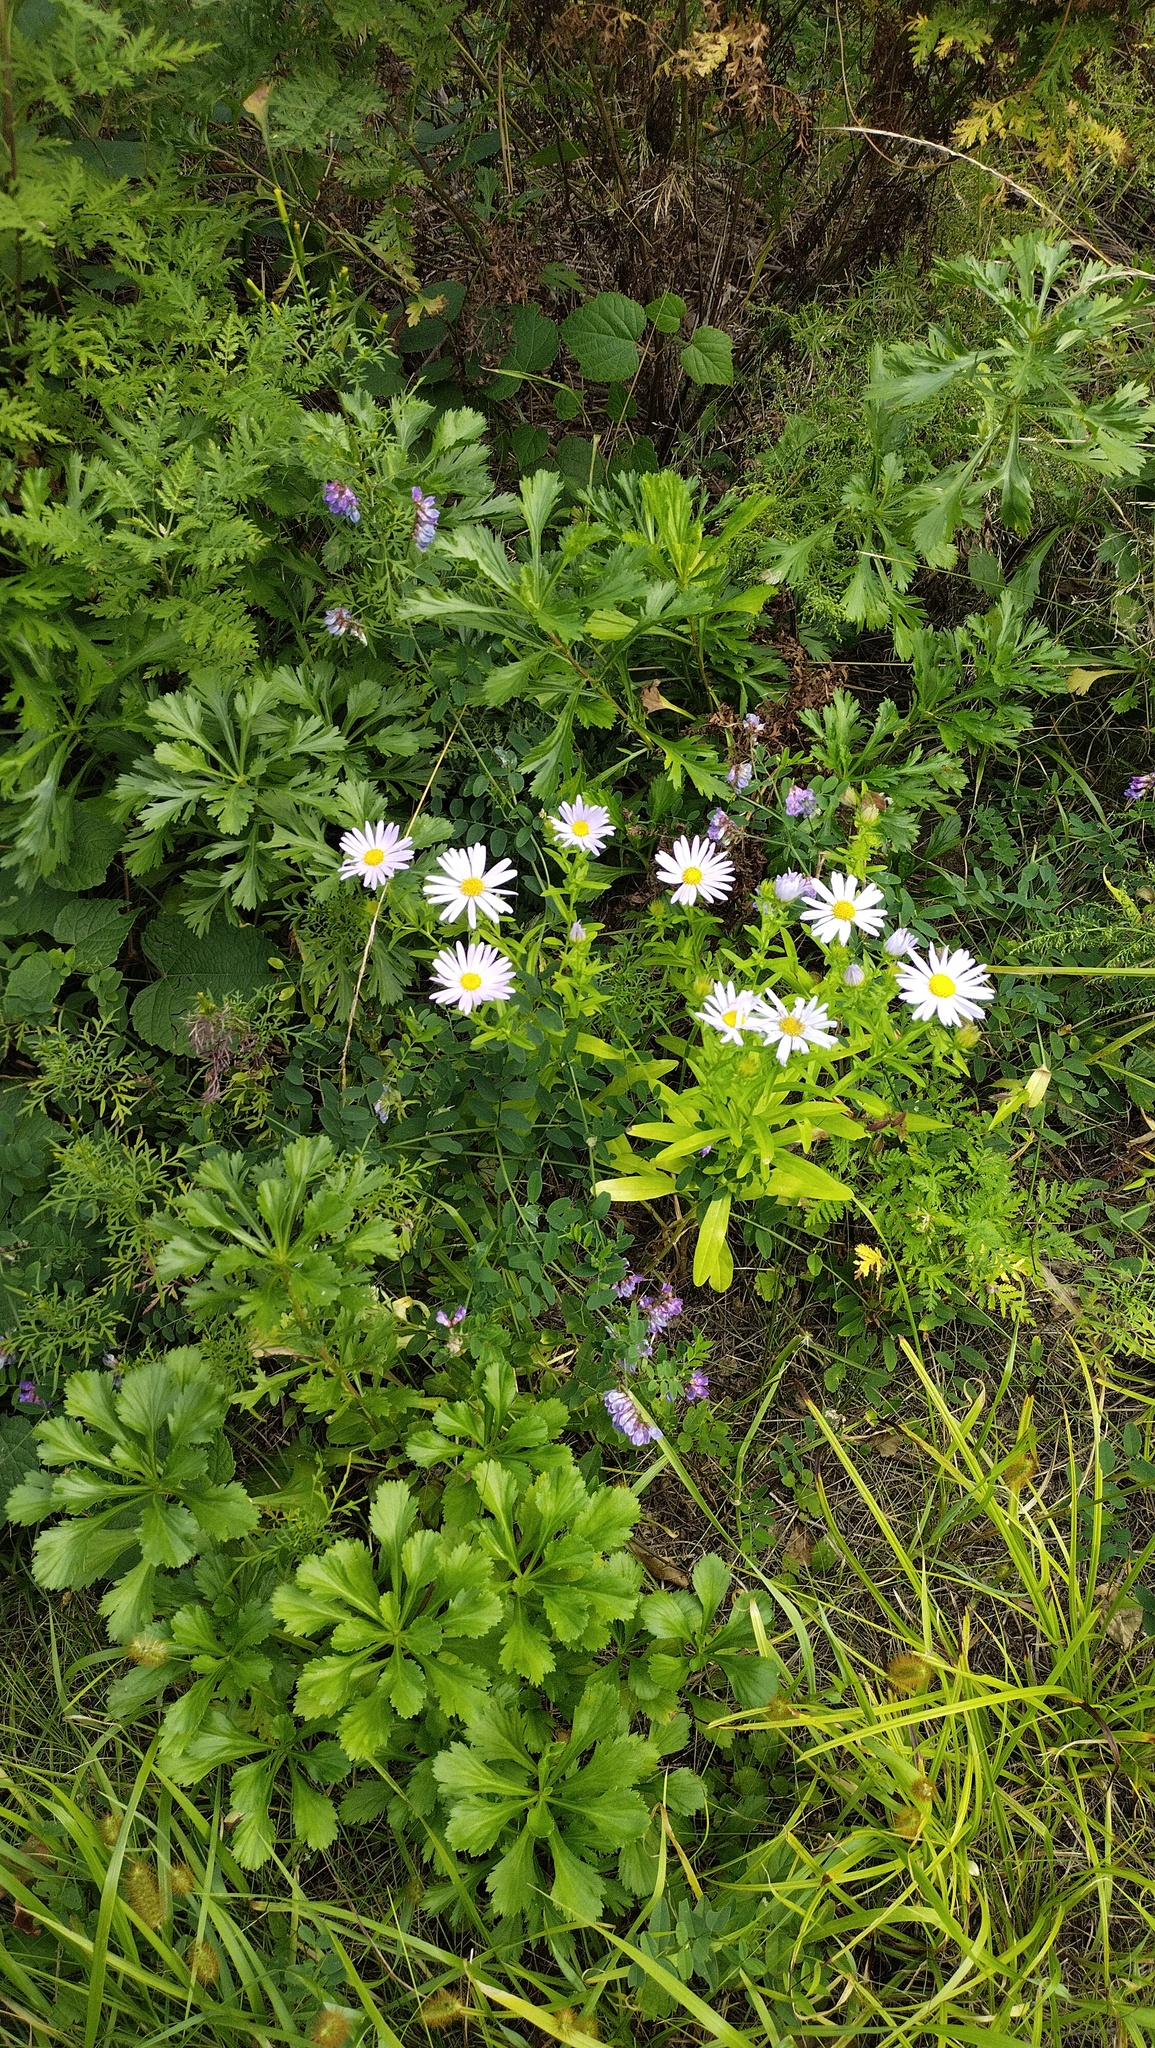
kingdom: Plantae
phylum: Tracheophyta
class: Magnoliopsida
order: Asterales
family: Asteraceae
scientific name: Asteraceae
